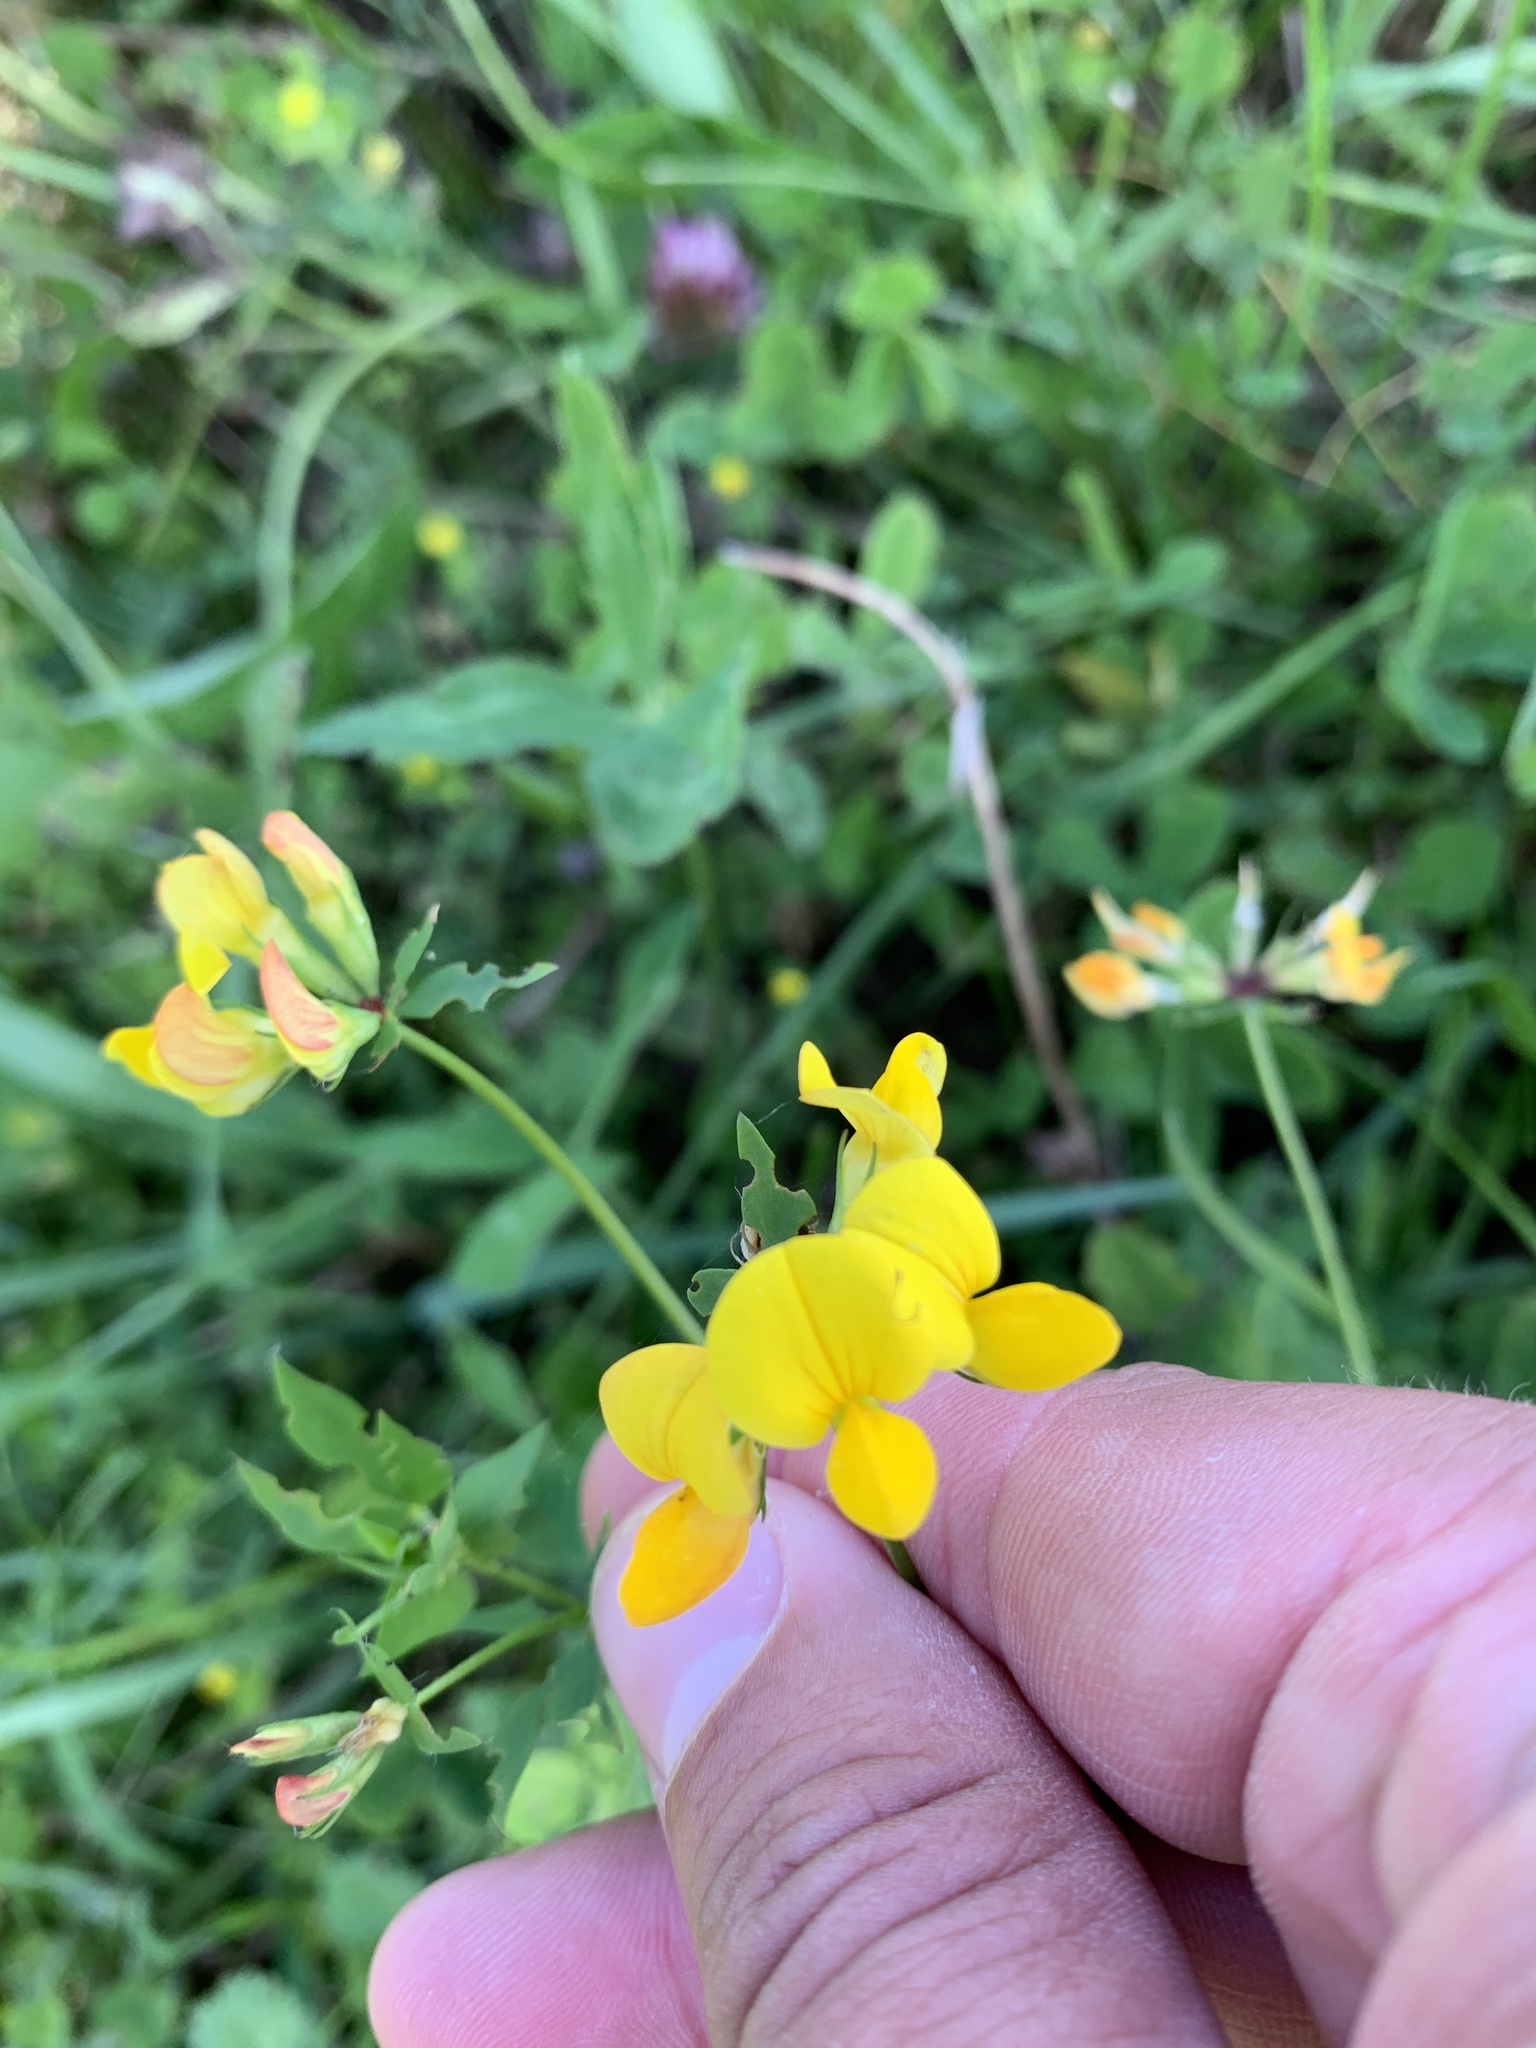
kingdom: Plantae
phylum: Tracheophyta
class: Magnoliopsida
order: Fabales
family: Fabaceae
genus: Lotus
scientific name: Lotus corniculatus
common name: Common bird's-foot-trefoil
